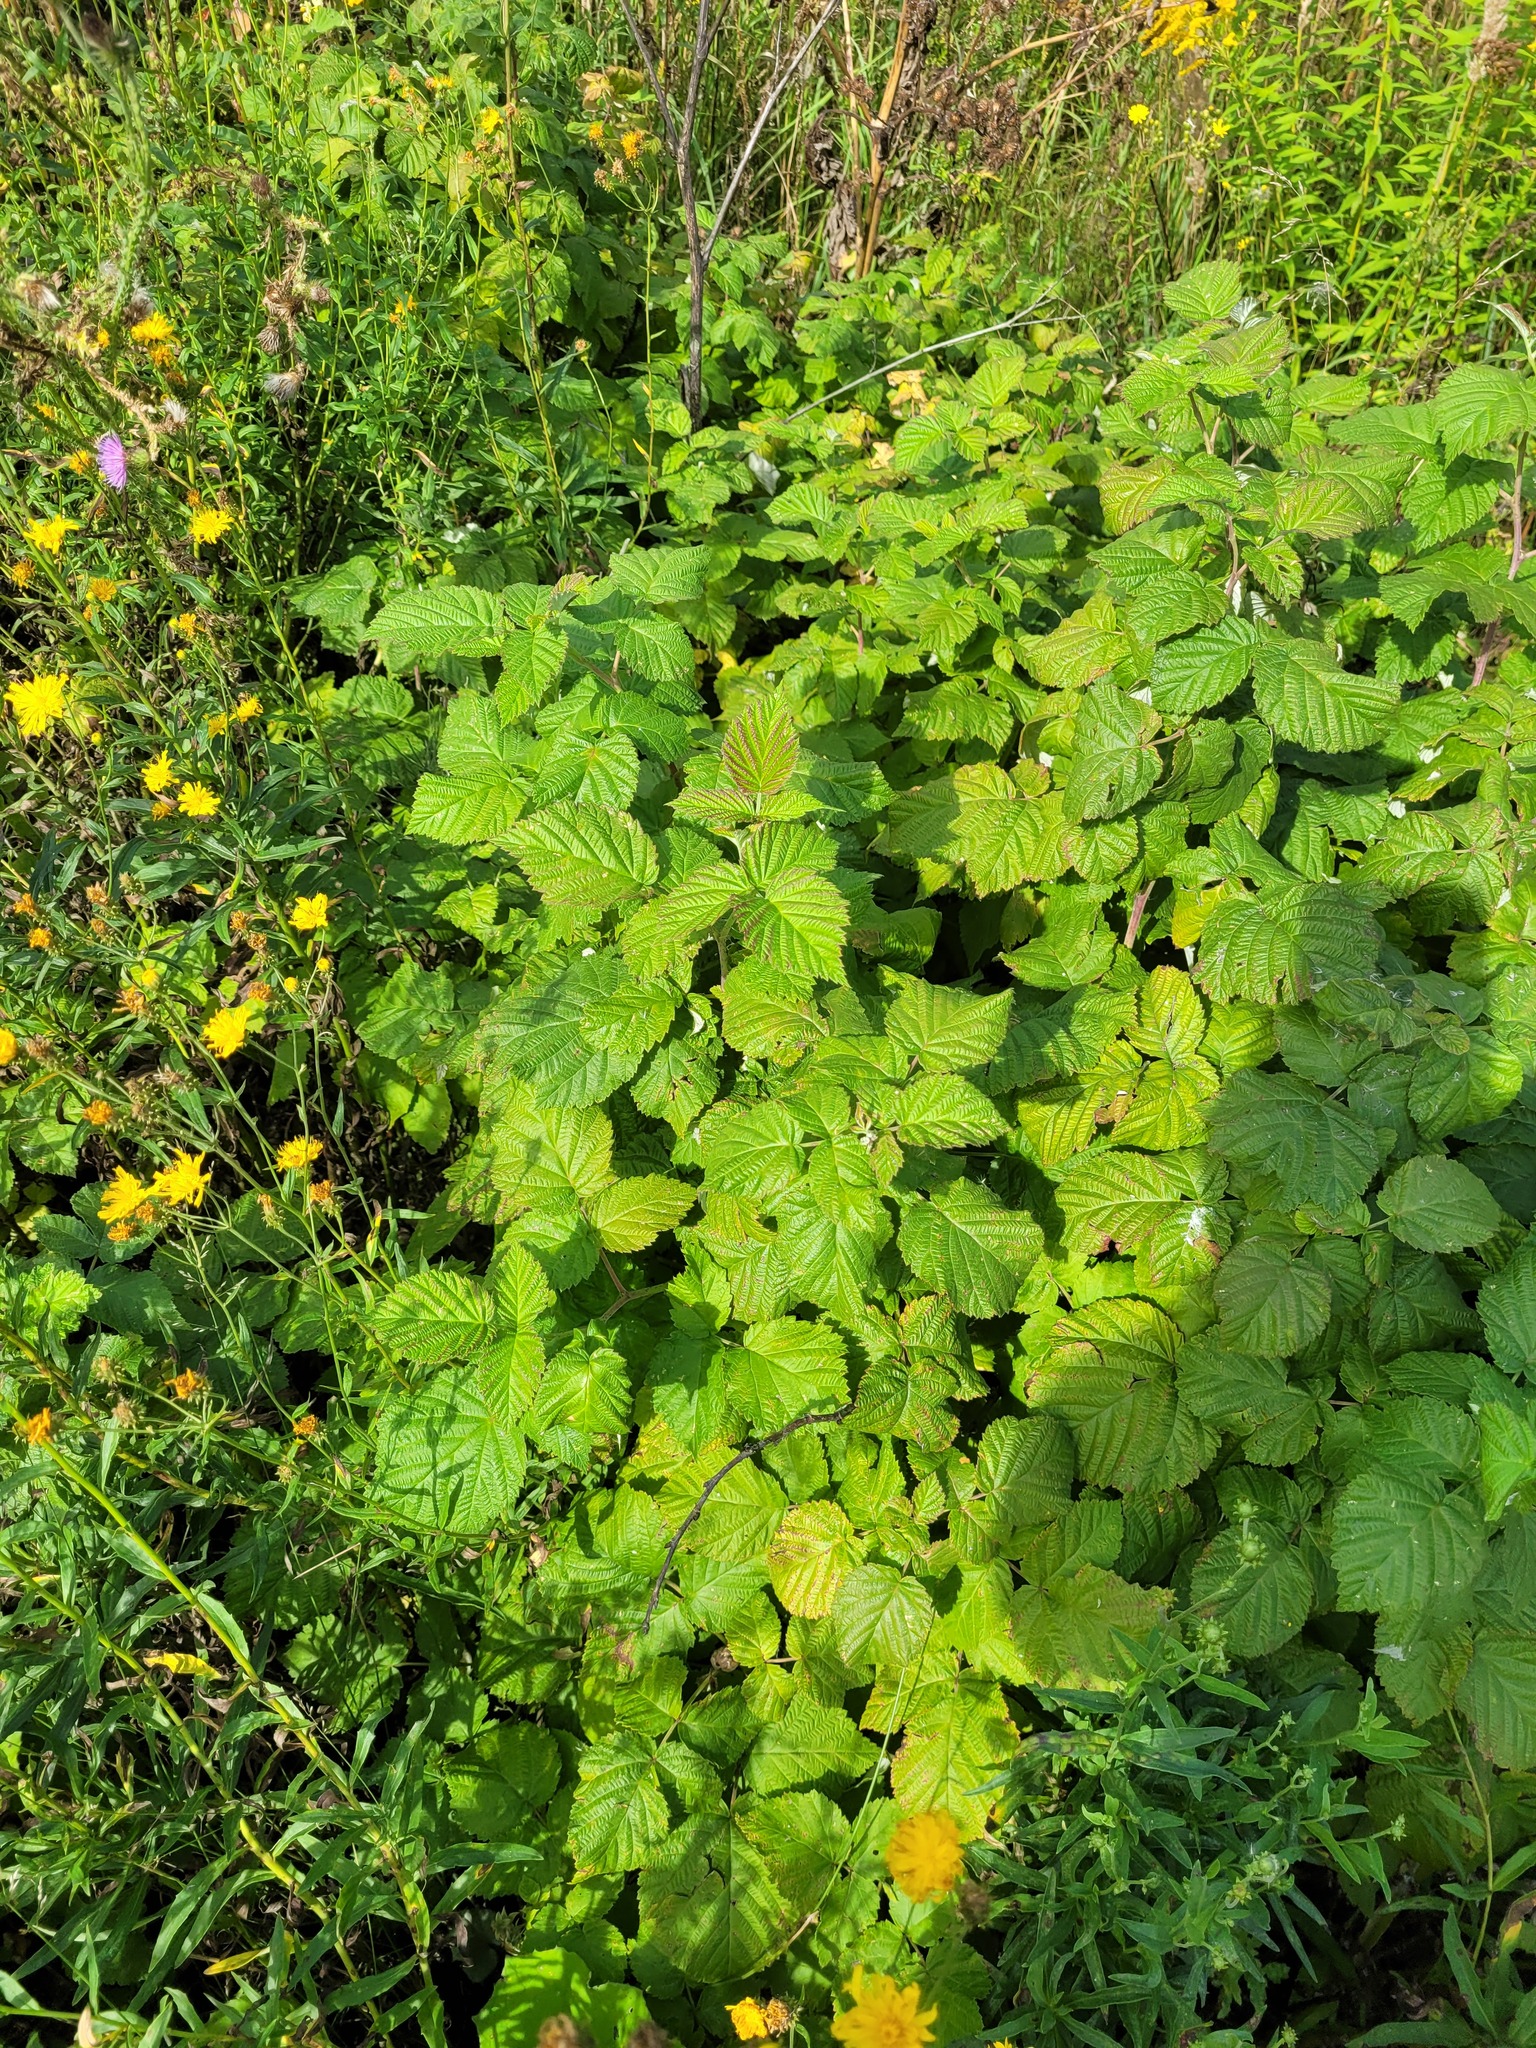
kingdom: Plantae
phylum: Tracheophyta
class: Magnoliopsida
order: Rosales
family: Rosaceae
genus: Rubus
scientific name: Rubus idaeus
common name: Raspberry
